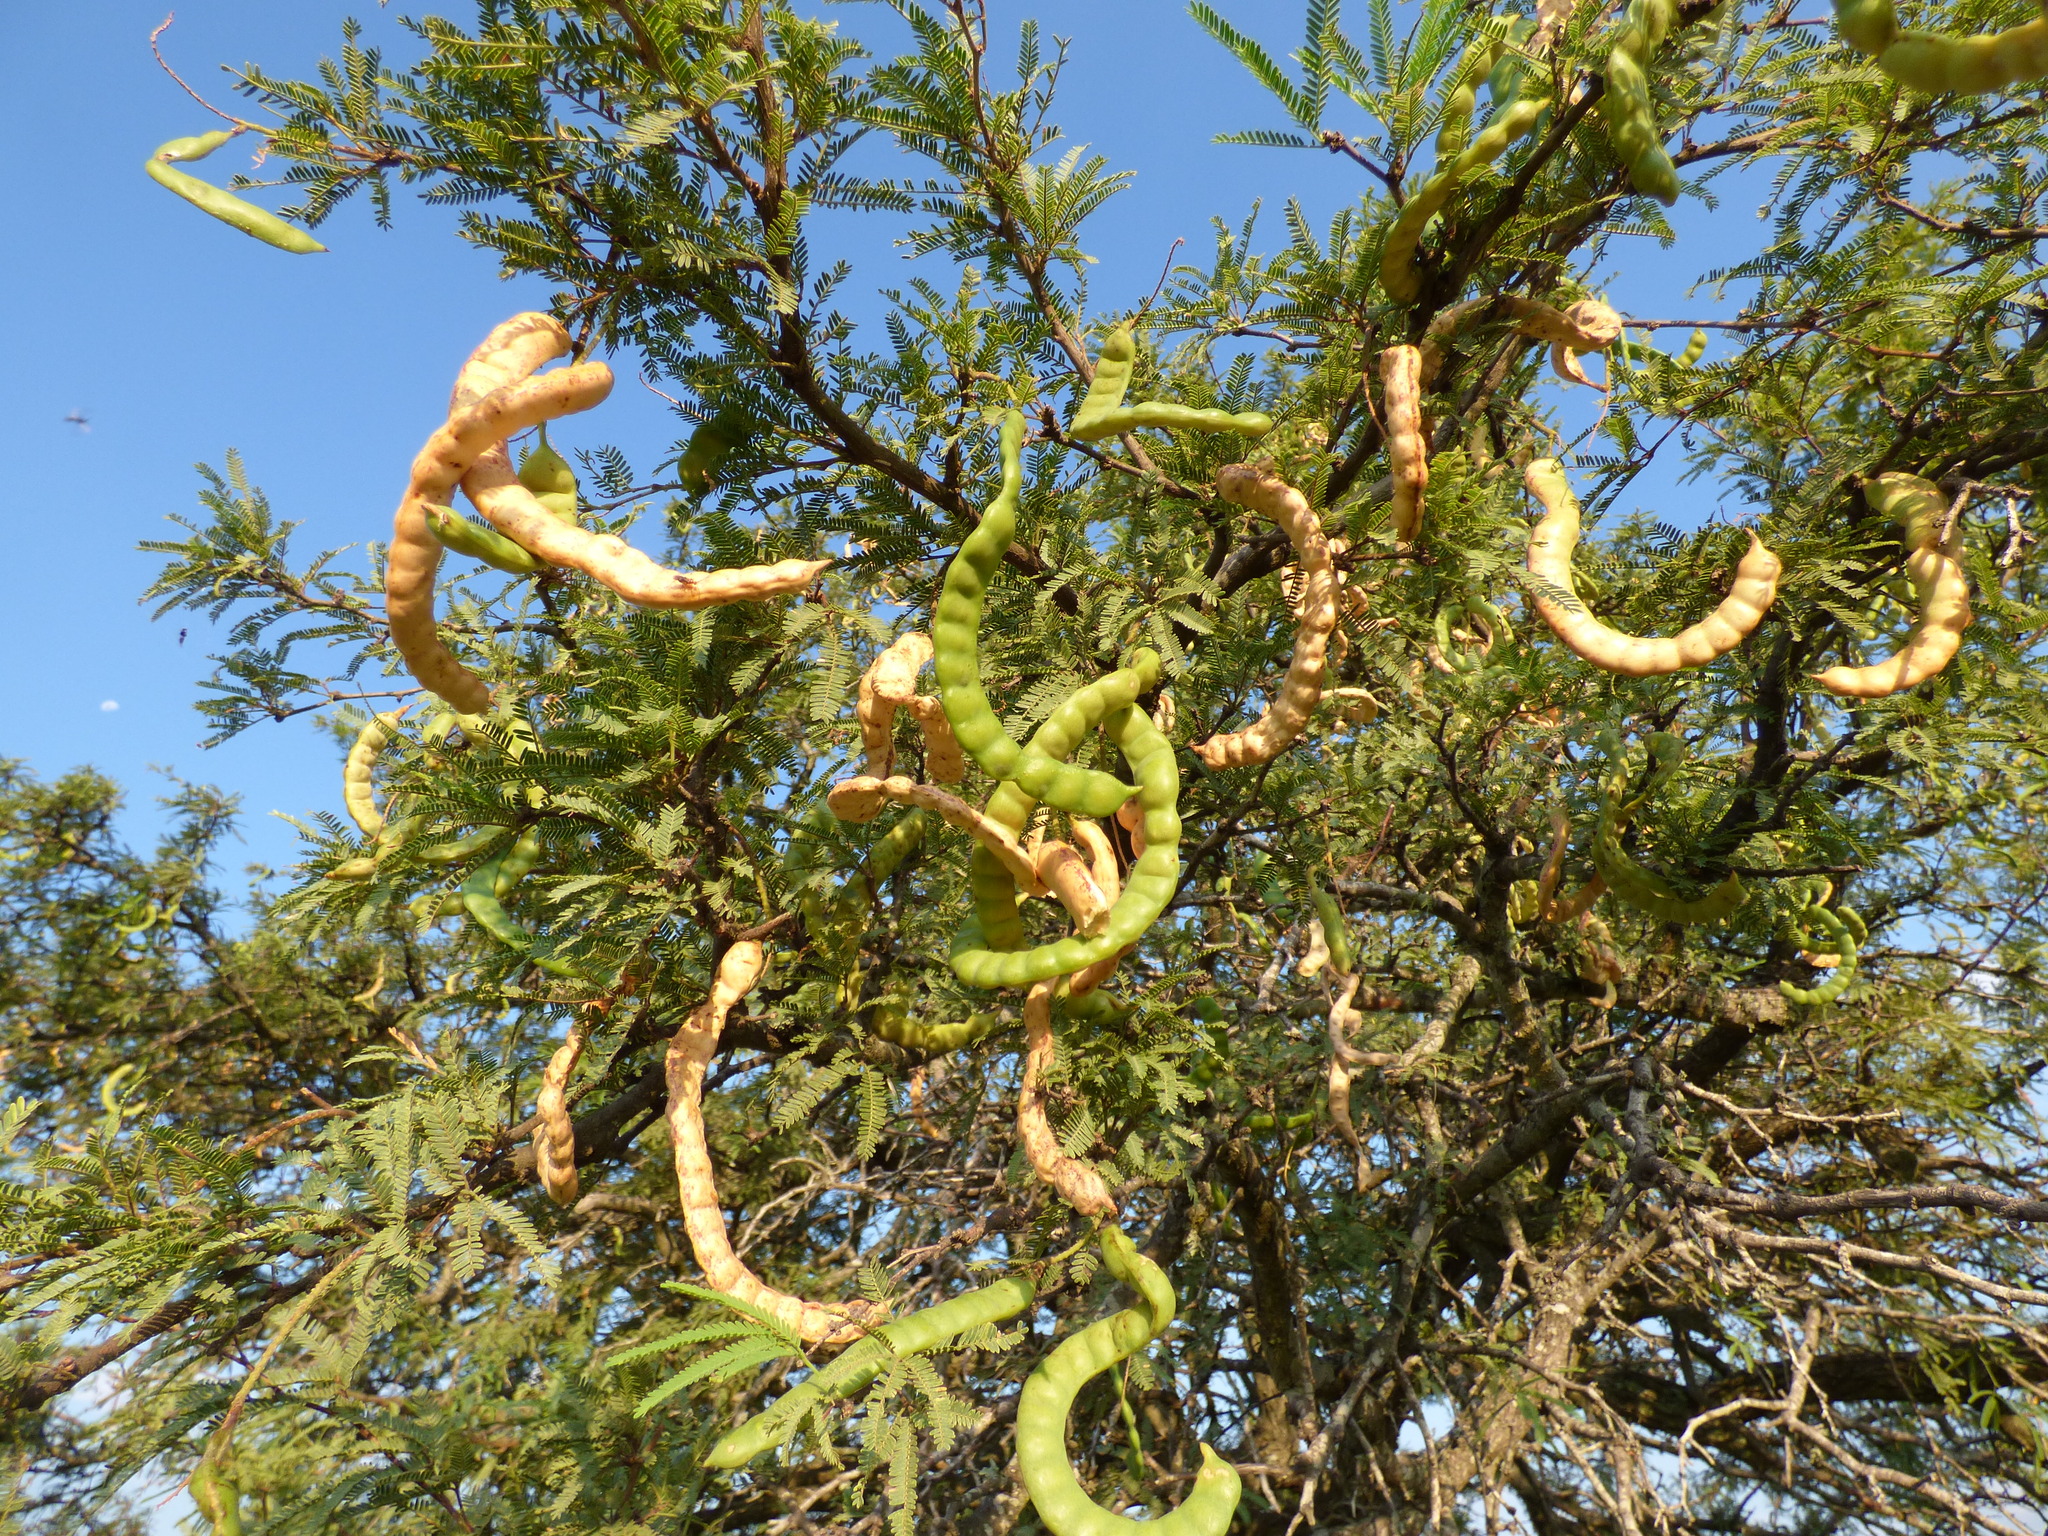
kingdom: Plantae
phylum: Tracheophyta
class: Magnoliopsida
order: Fabales
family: Fabaceae
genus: Prosopis
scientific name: Prosopis affinis
